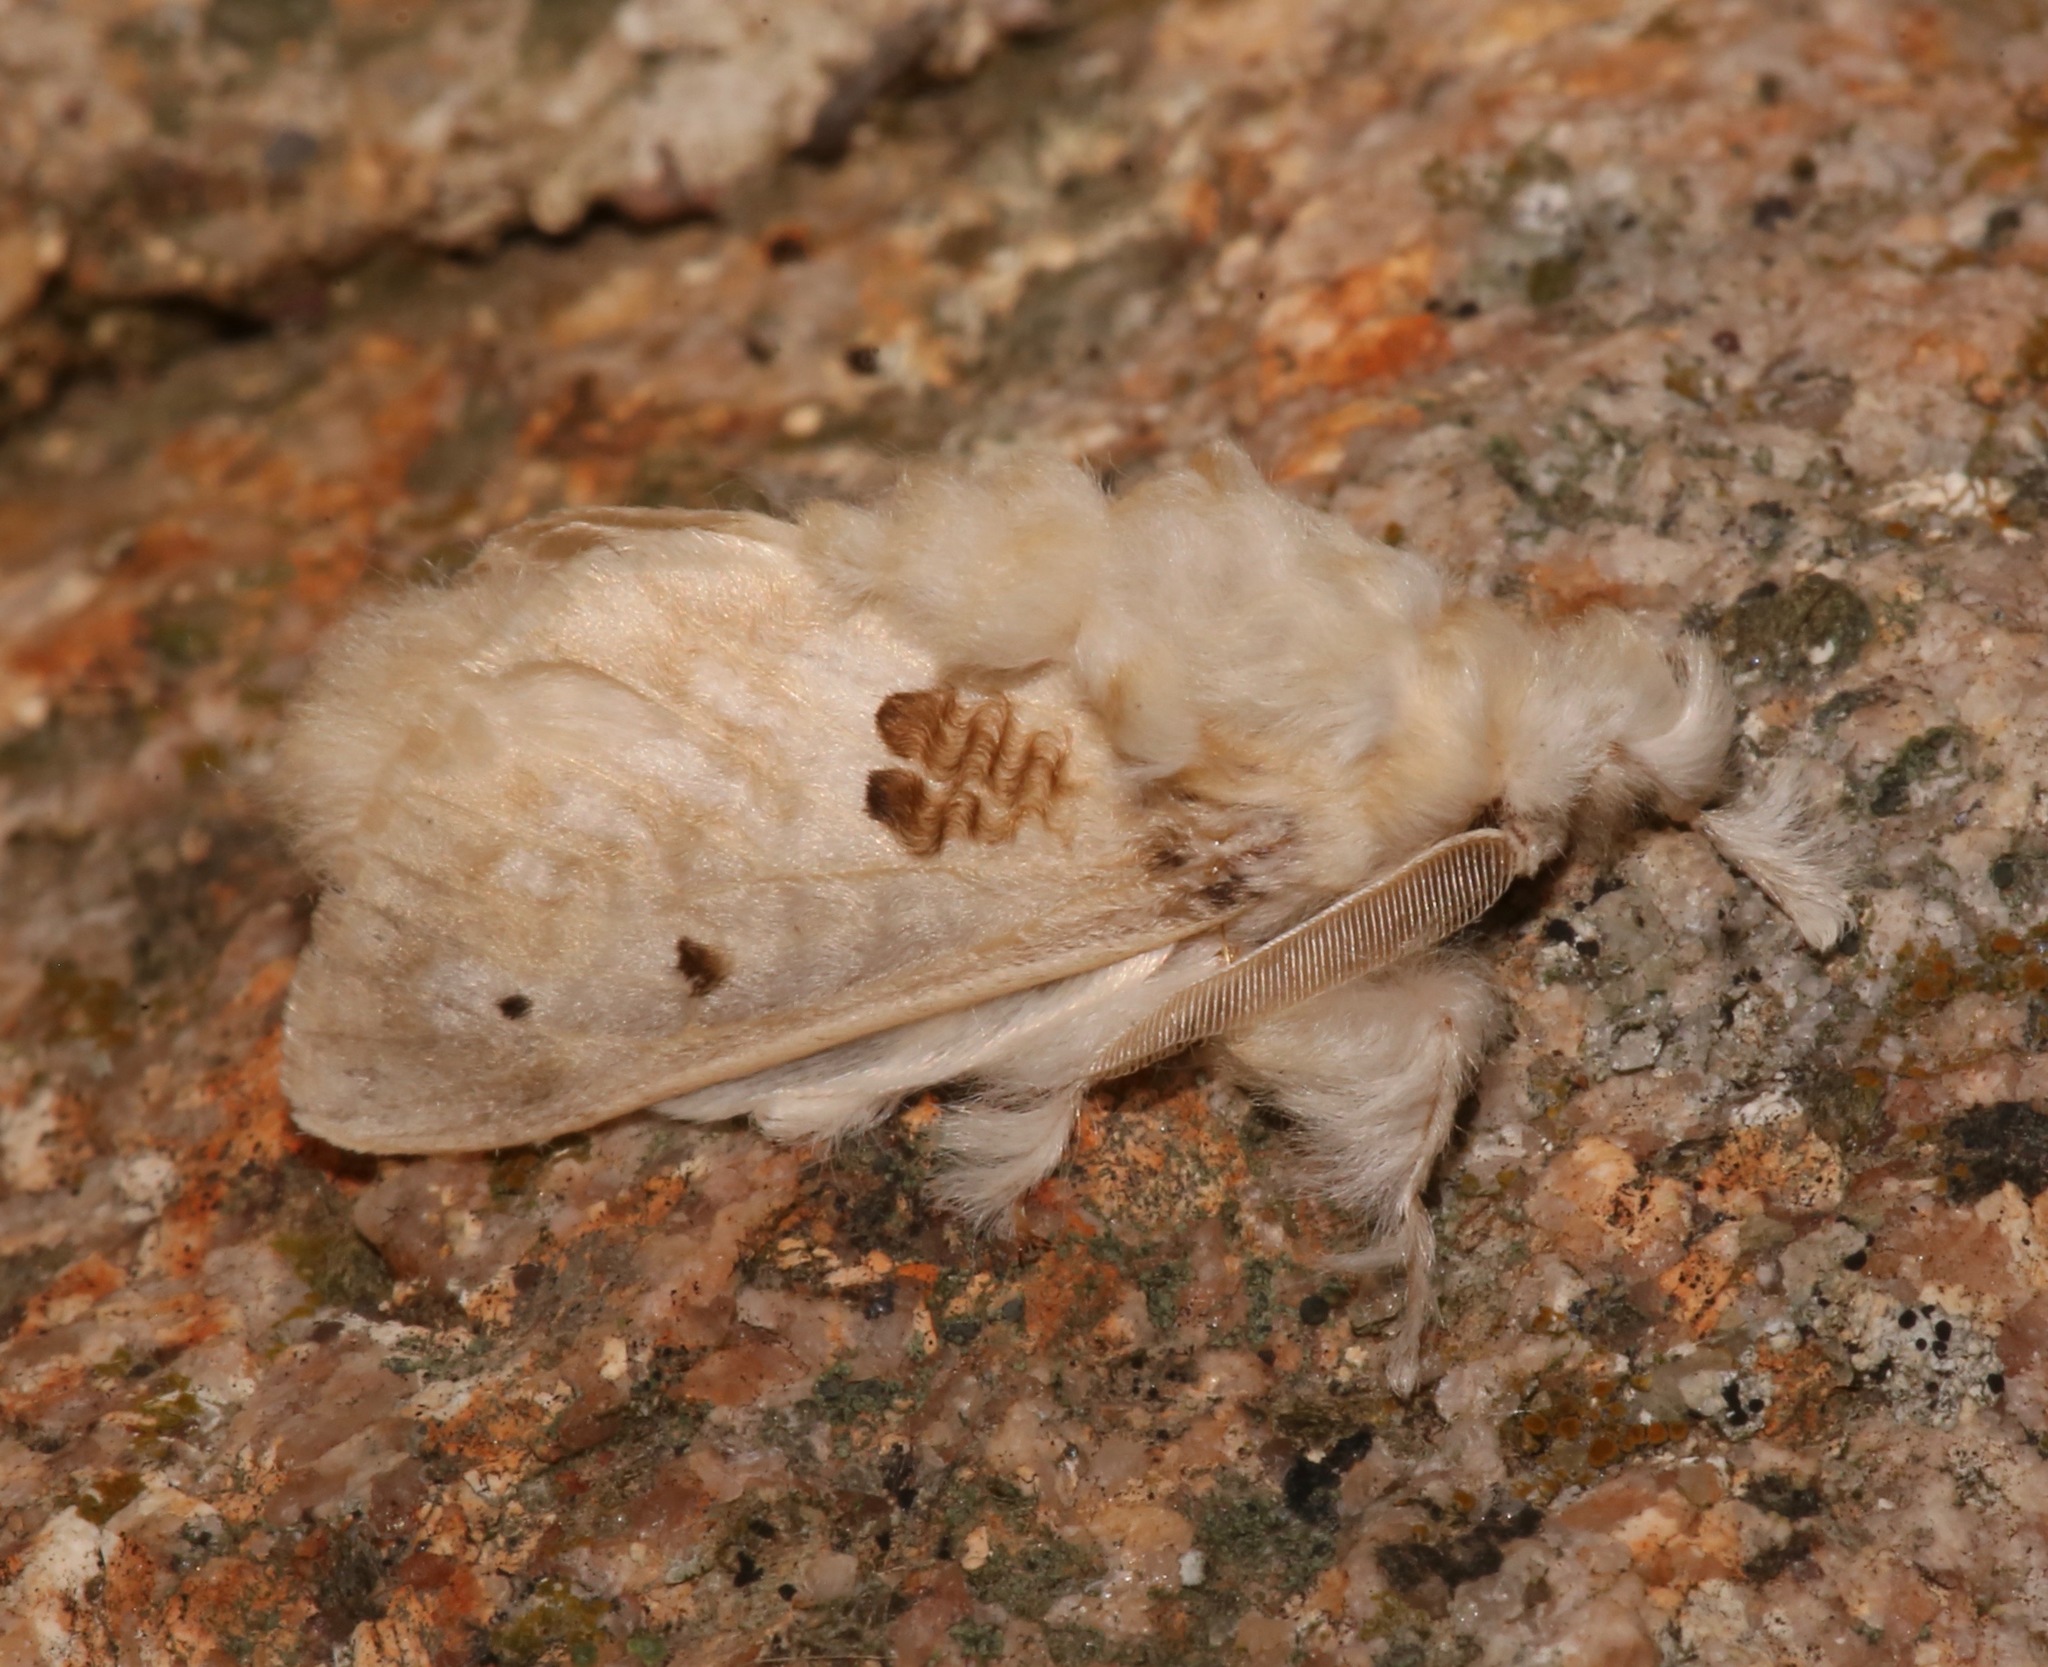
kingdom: Animalia
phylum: Arthropoda
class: Insecta
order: Lepidoptera
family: Megalopygidae
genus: Megalopyge
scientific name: Megalopyge lapena
